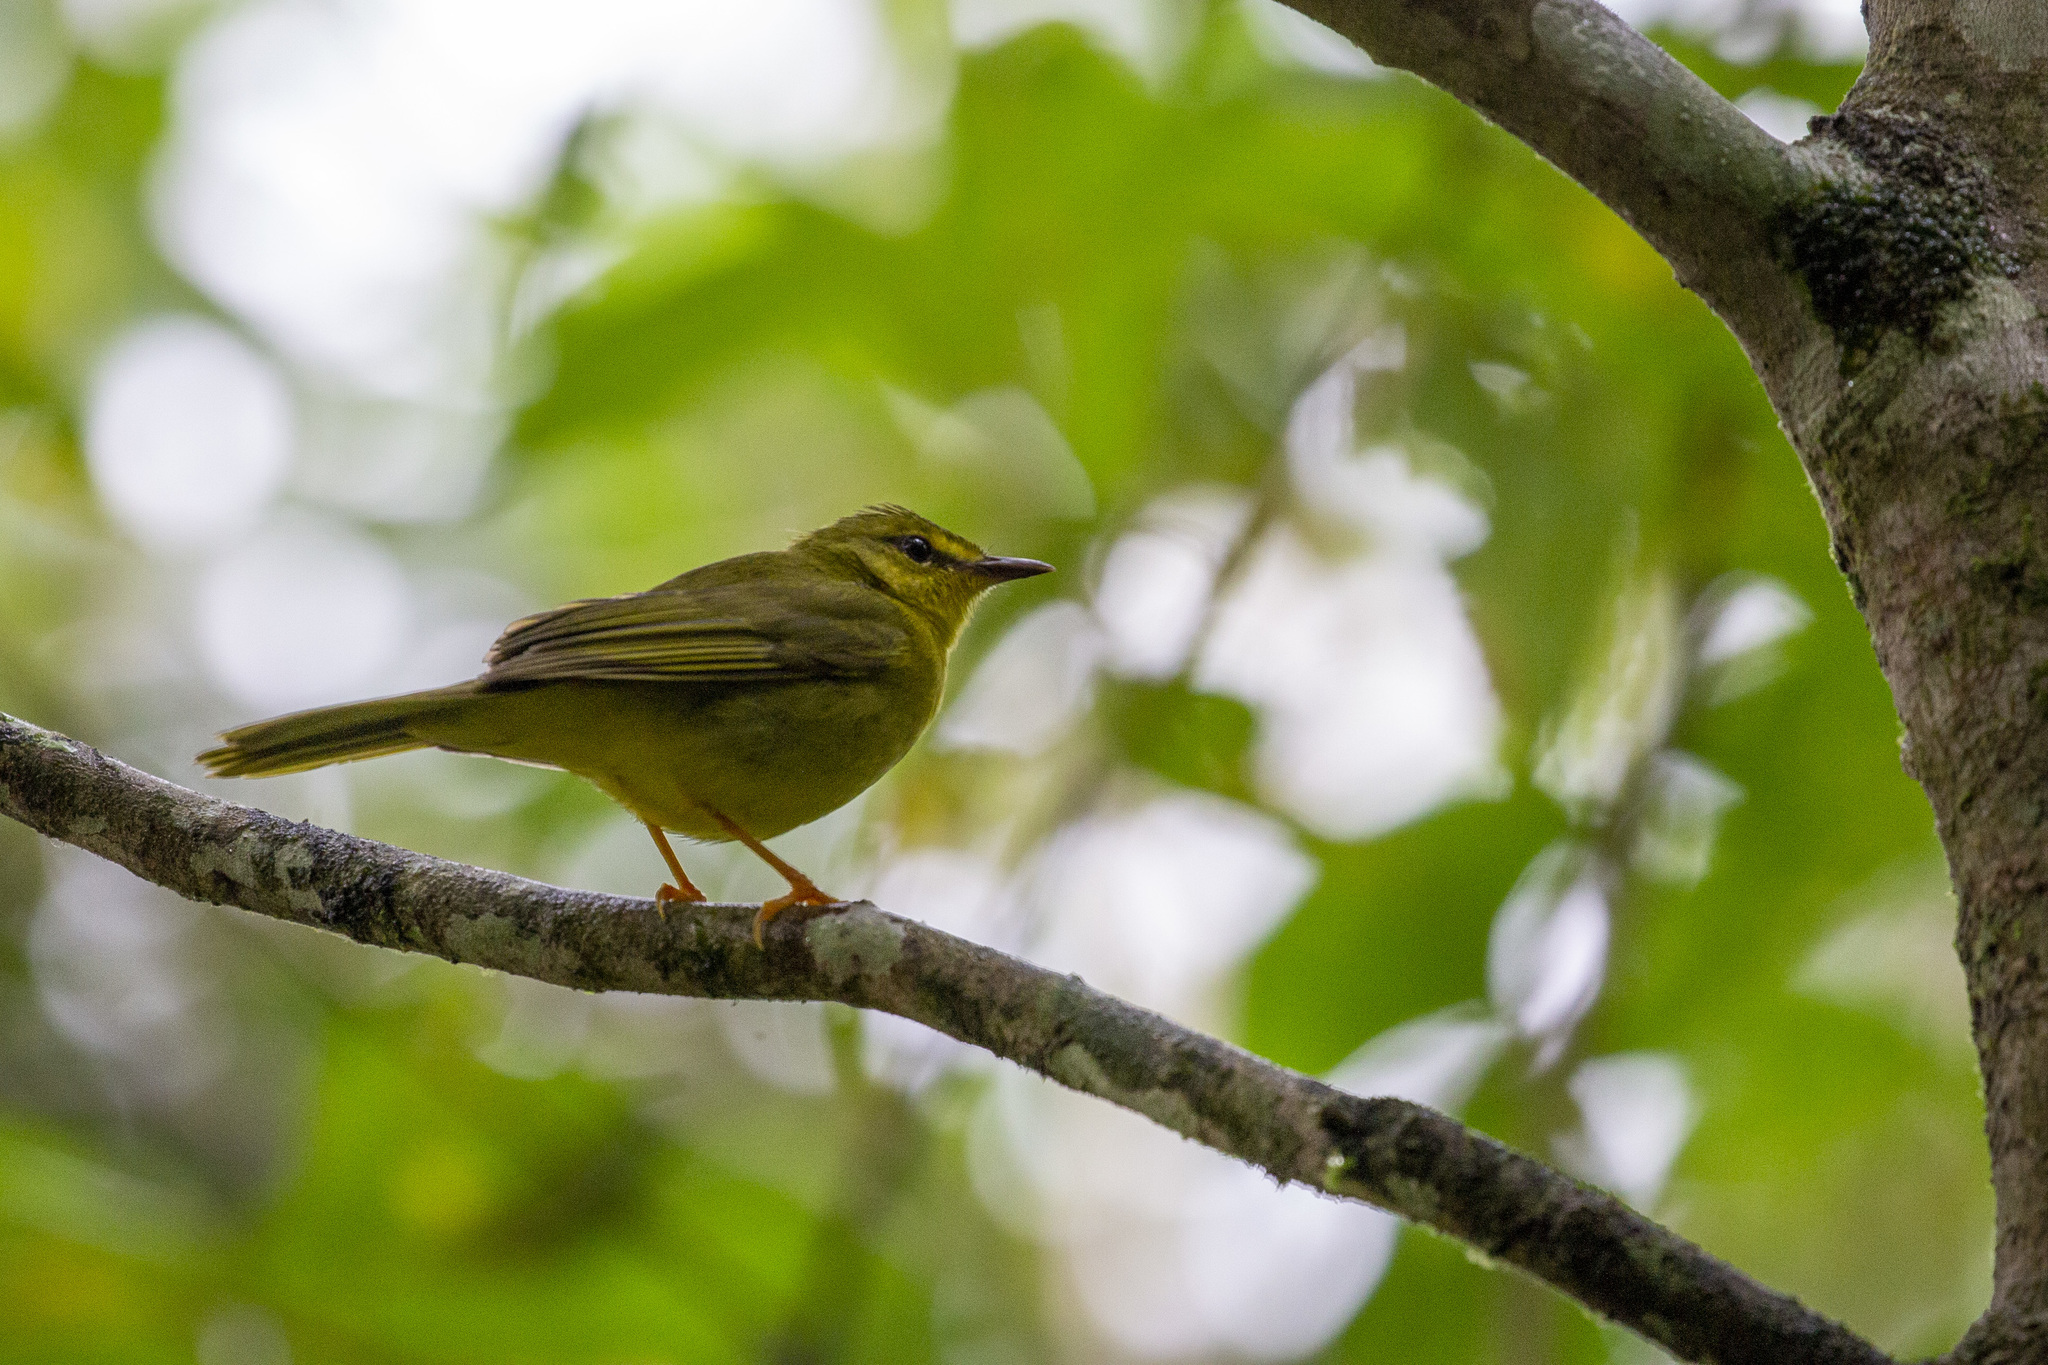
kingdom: Animalia
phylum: Chordata
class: Aves
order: Passeriformes
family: Parulidae
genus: Myiothlypis
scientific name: Myiothlypis flaveola
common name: Flavescent warbler
